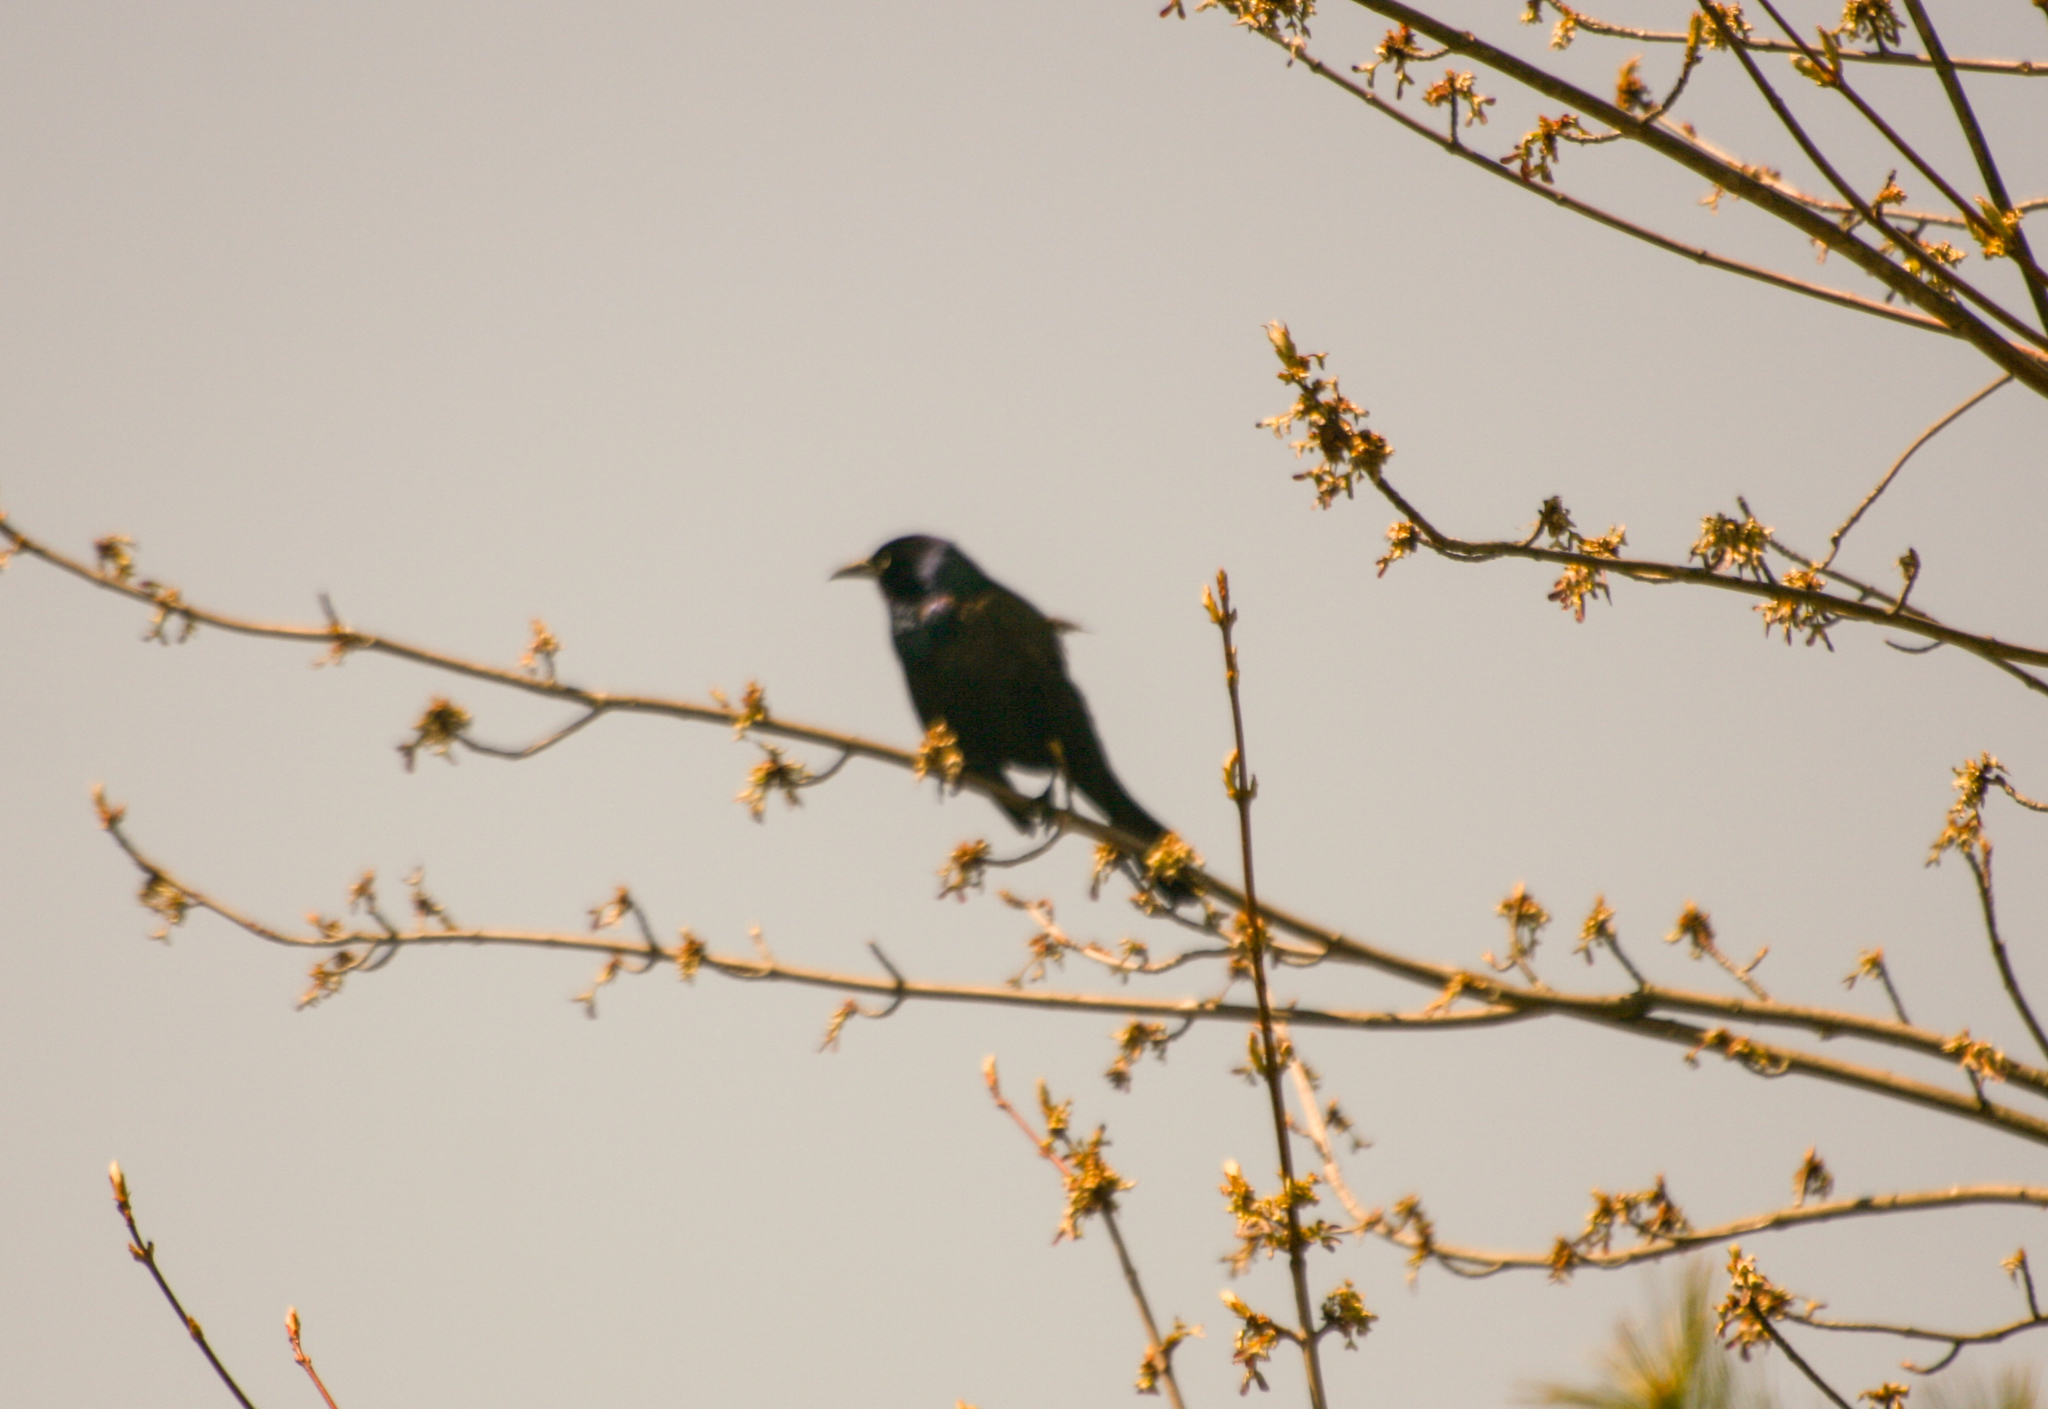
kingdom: Animalia
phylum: Chordata
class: Aves
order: Passeriformes
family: Icteridae
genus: Quiscalus
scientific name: Quiscalus quiscula
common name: Common grackle
